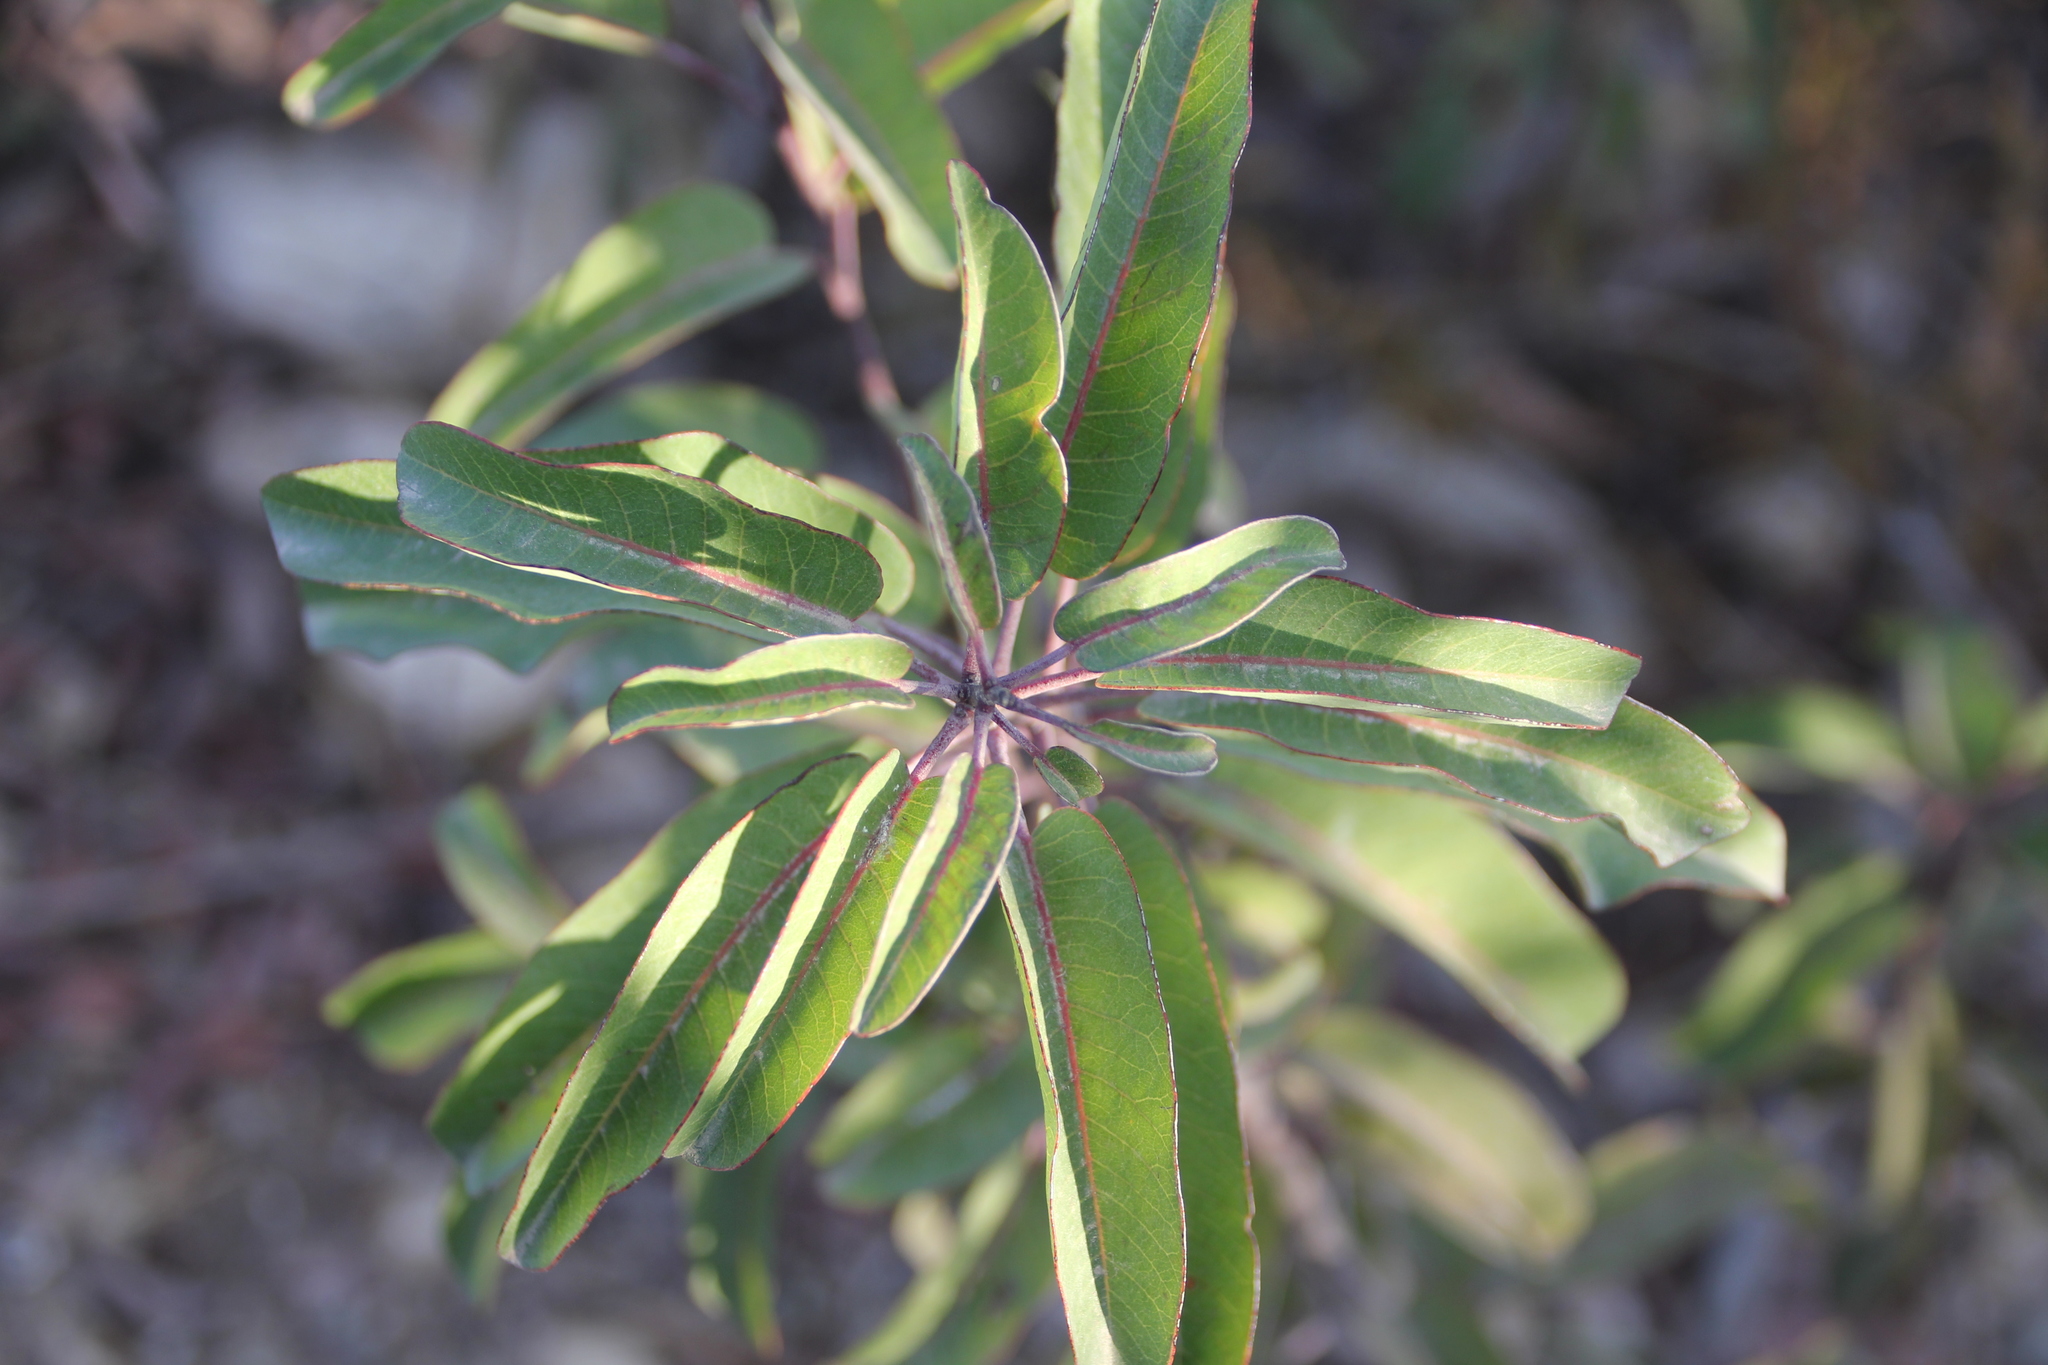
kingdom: Plantae
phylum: Tracheophyta
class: Magnoliopsida
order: Sapindales
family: Anacardiaceae
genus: Malosma
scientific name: Malosma laurina
